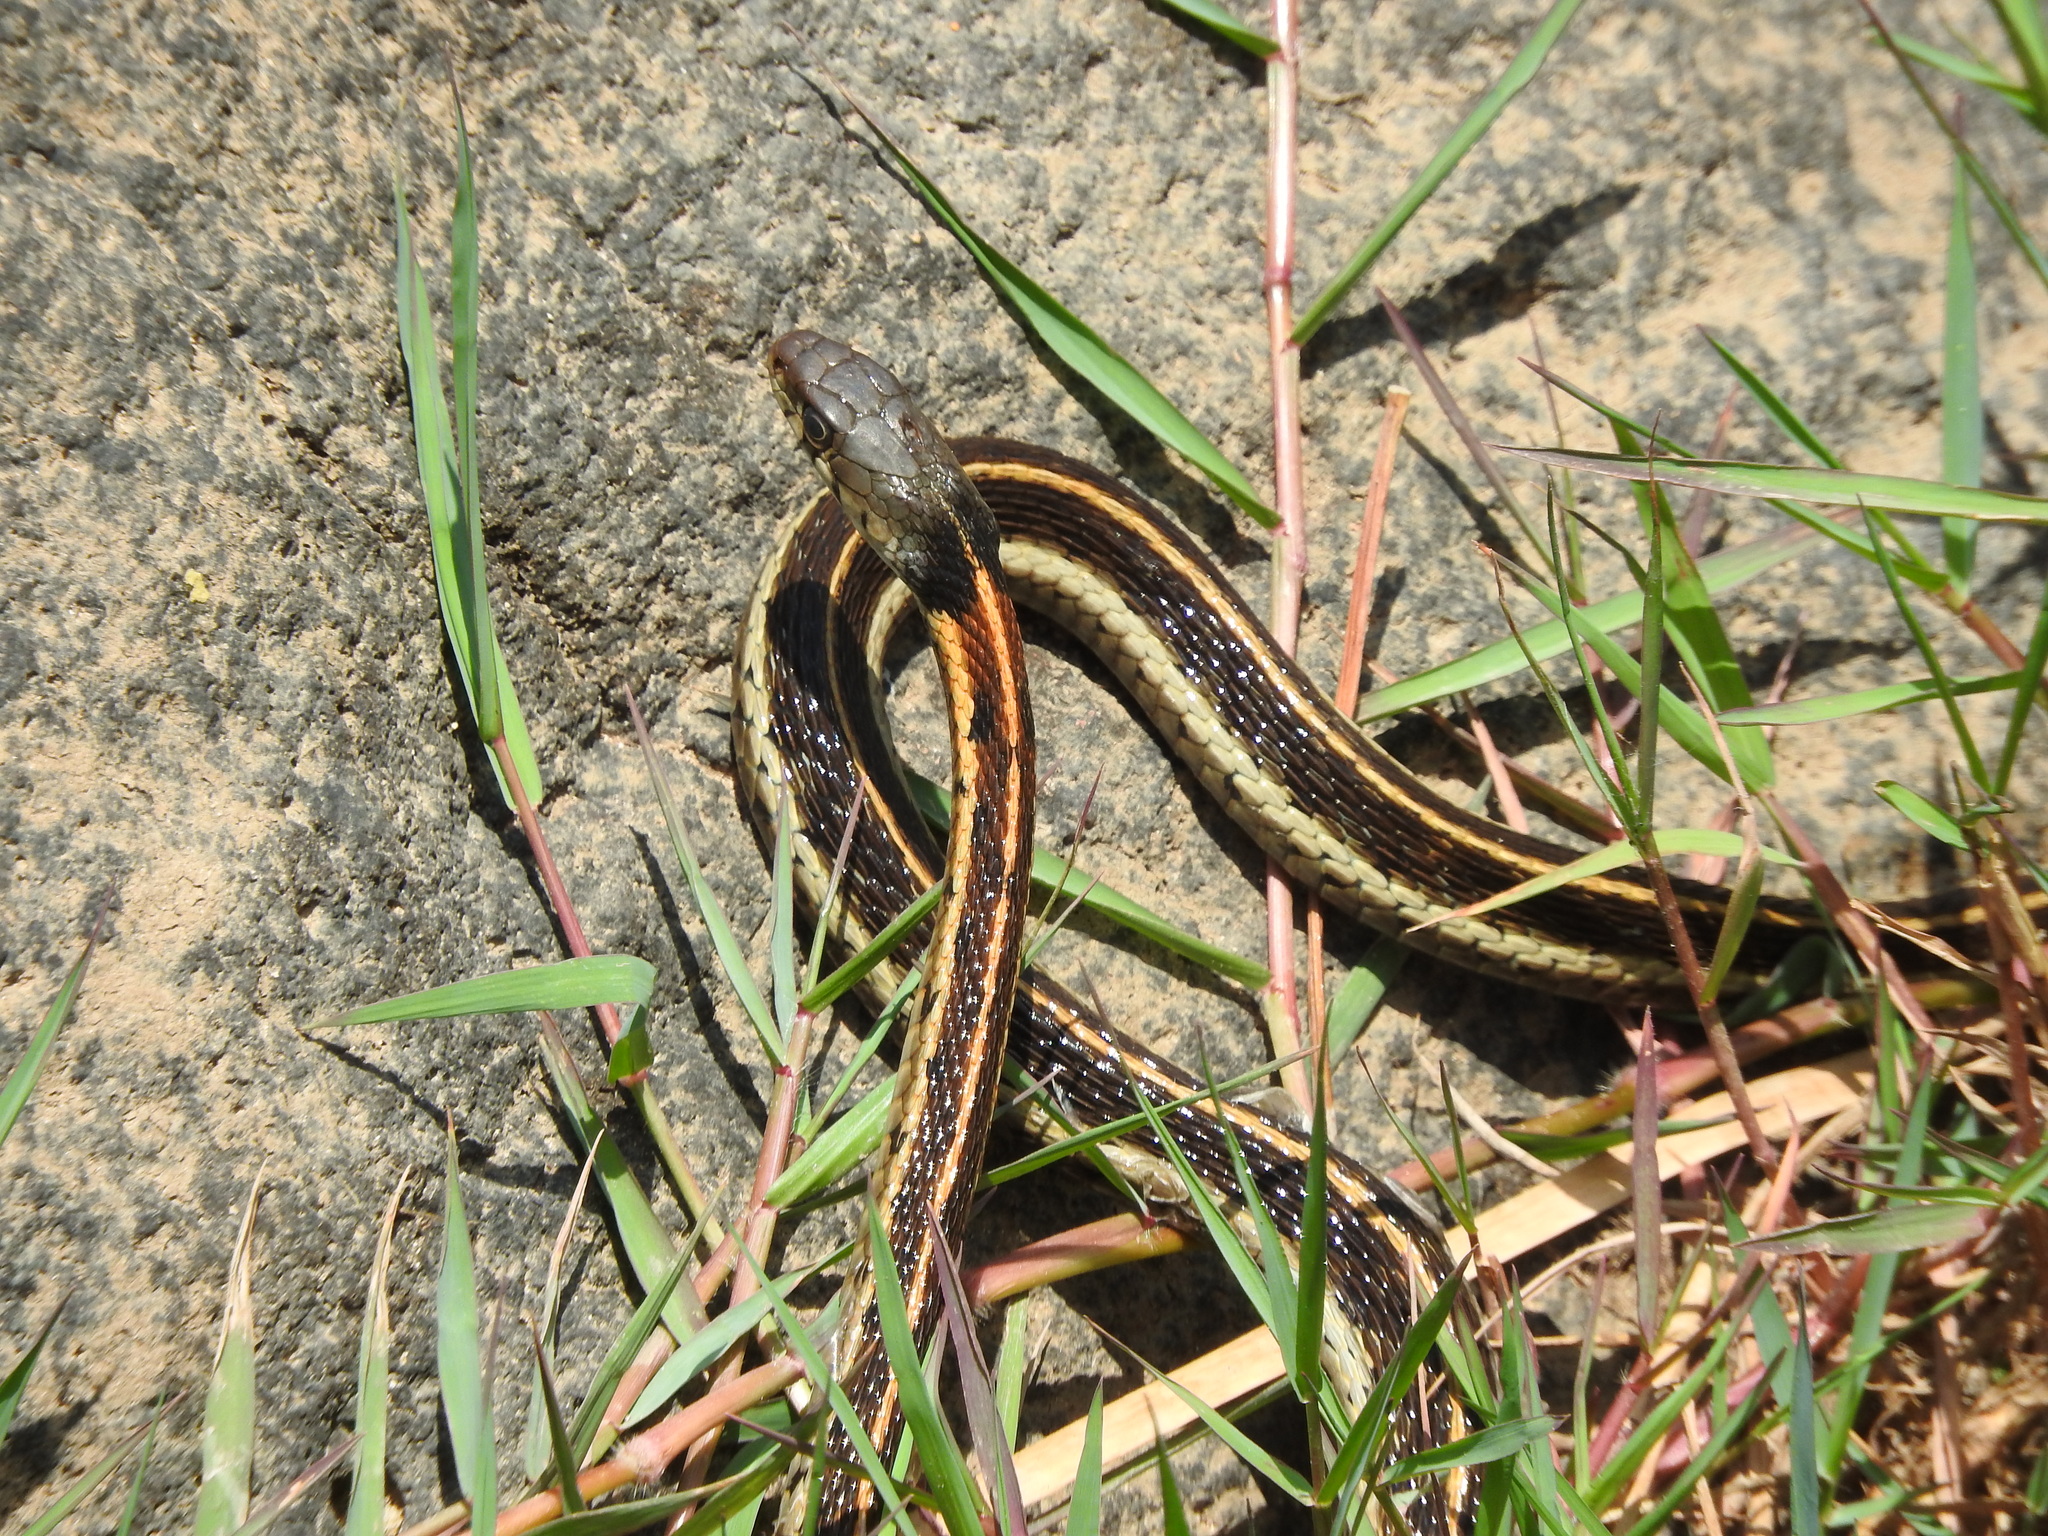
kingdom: Animalia
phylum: Chordata
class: Squamata
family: Colubridae
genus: Thamnophis
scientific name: Thamnophis cyrtopsis
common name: Black-necked gartersnake
